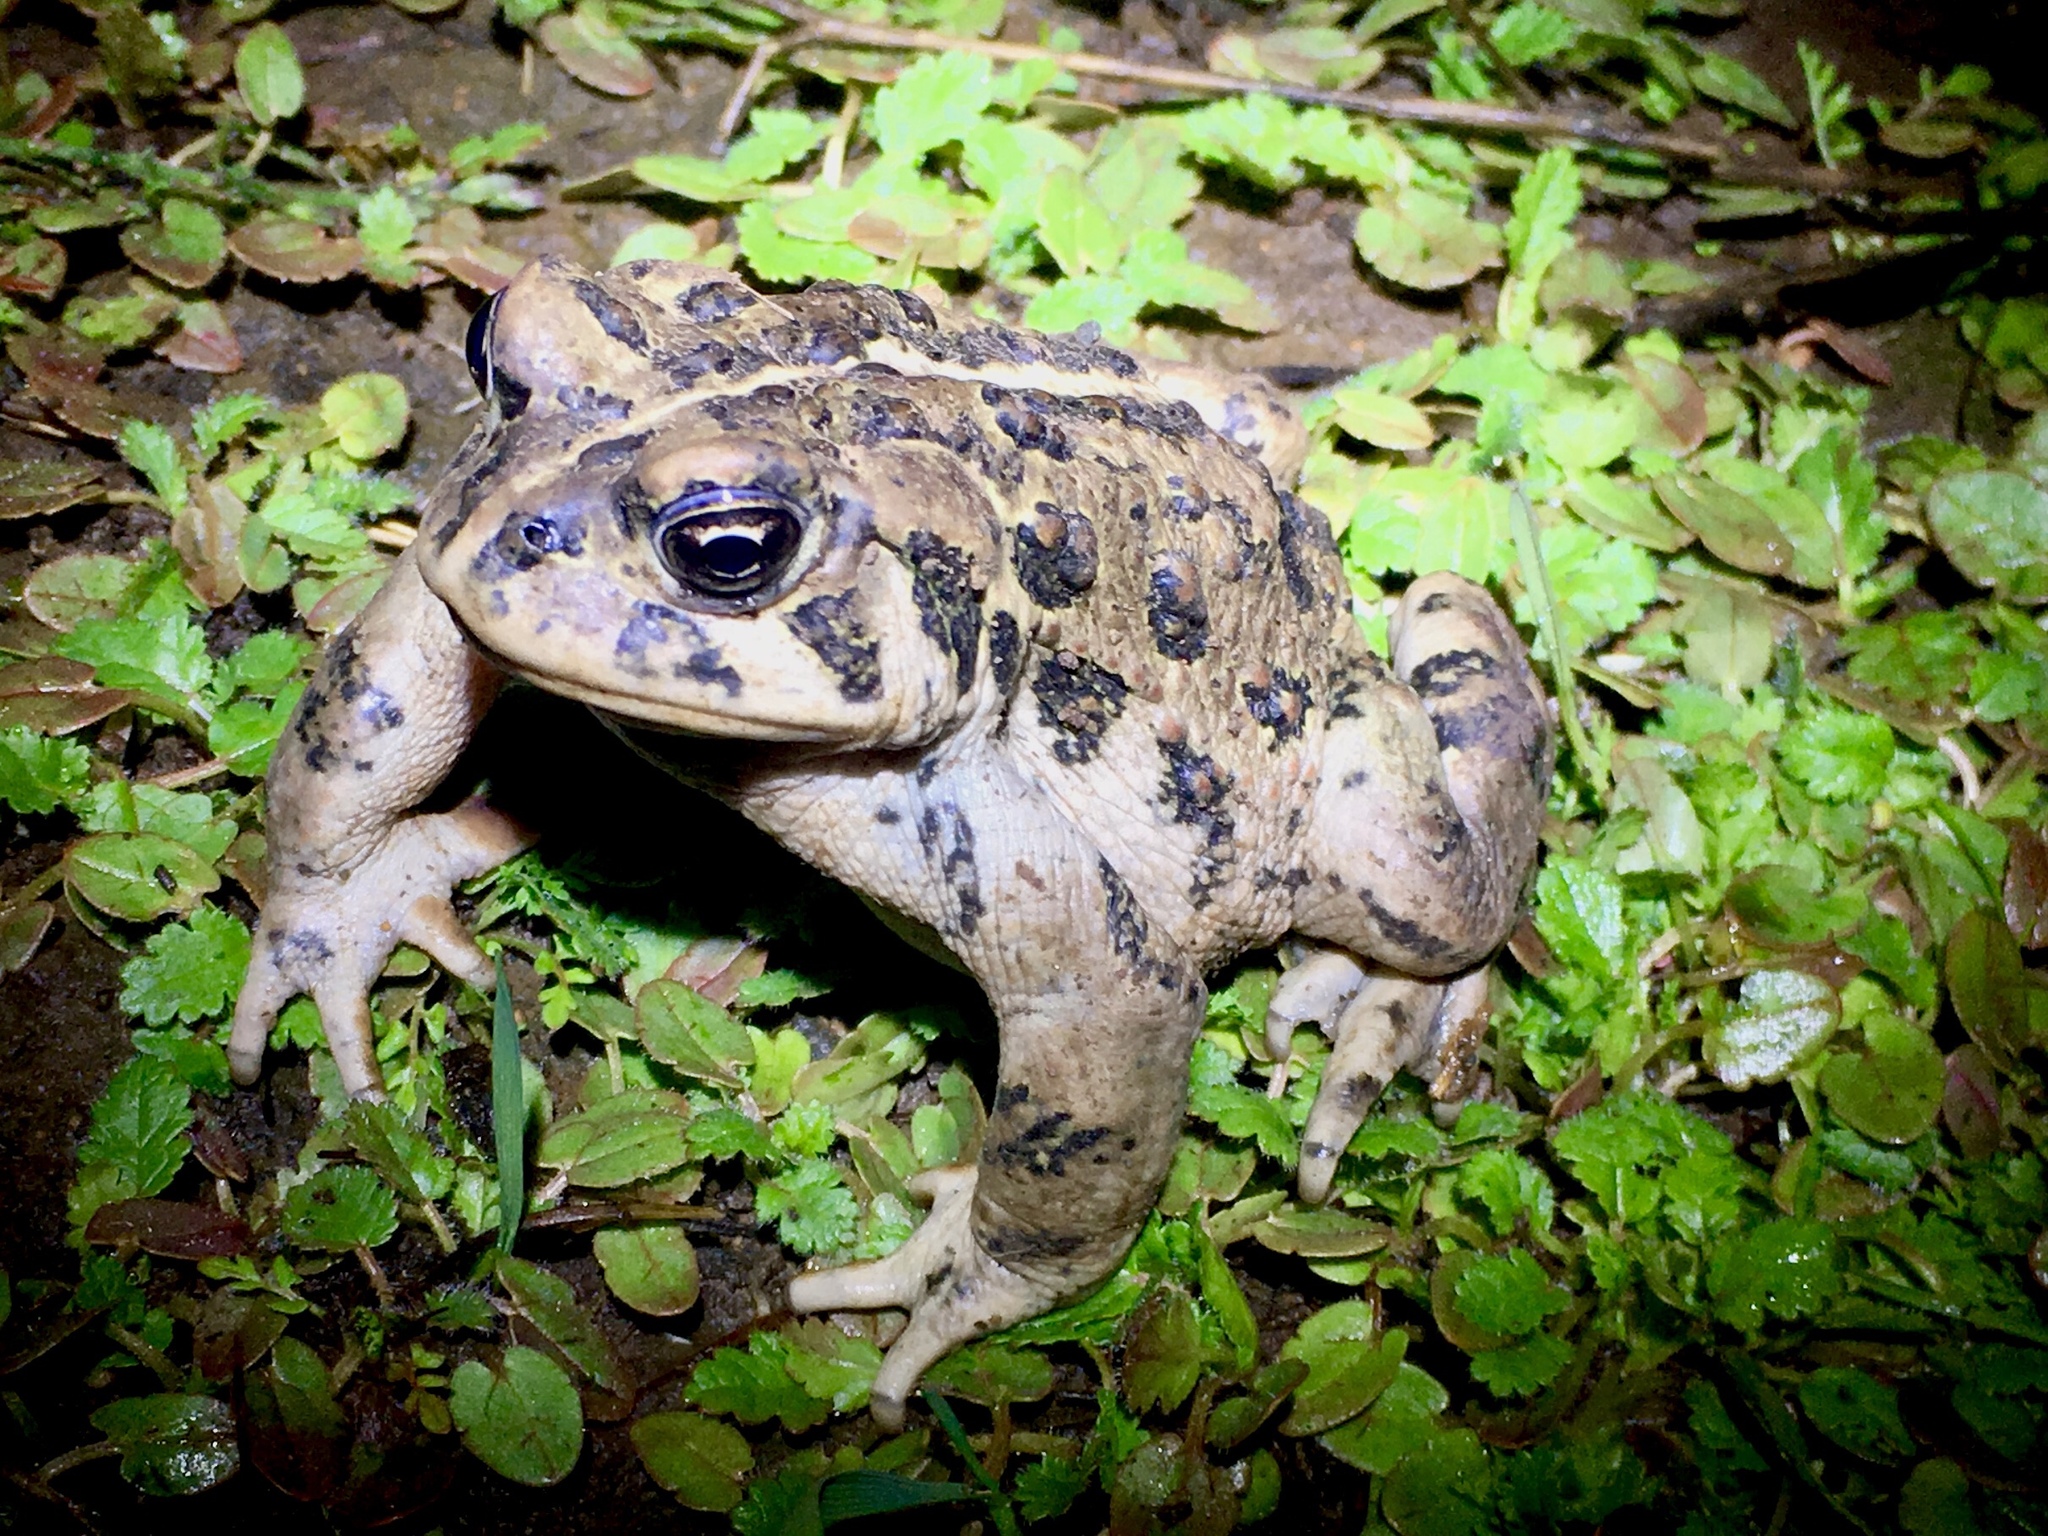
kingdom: Animalia
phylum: Chordata
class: Amphibia
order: Anura
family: Bufonidae
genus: Anaxyrus
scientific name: Anaxyrus boreas
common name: Western toad
